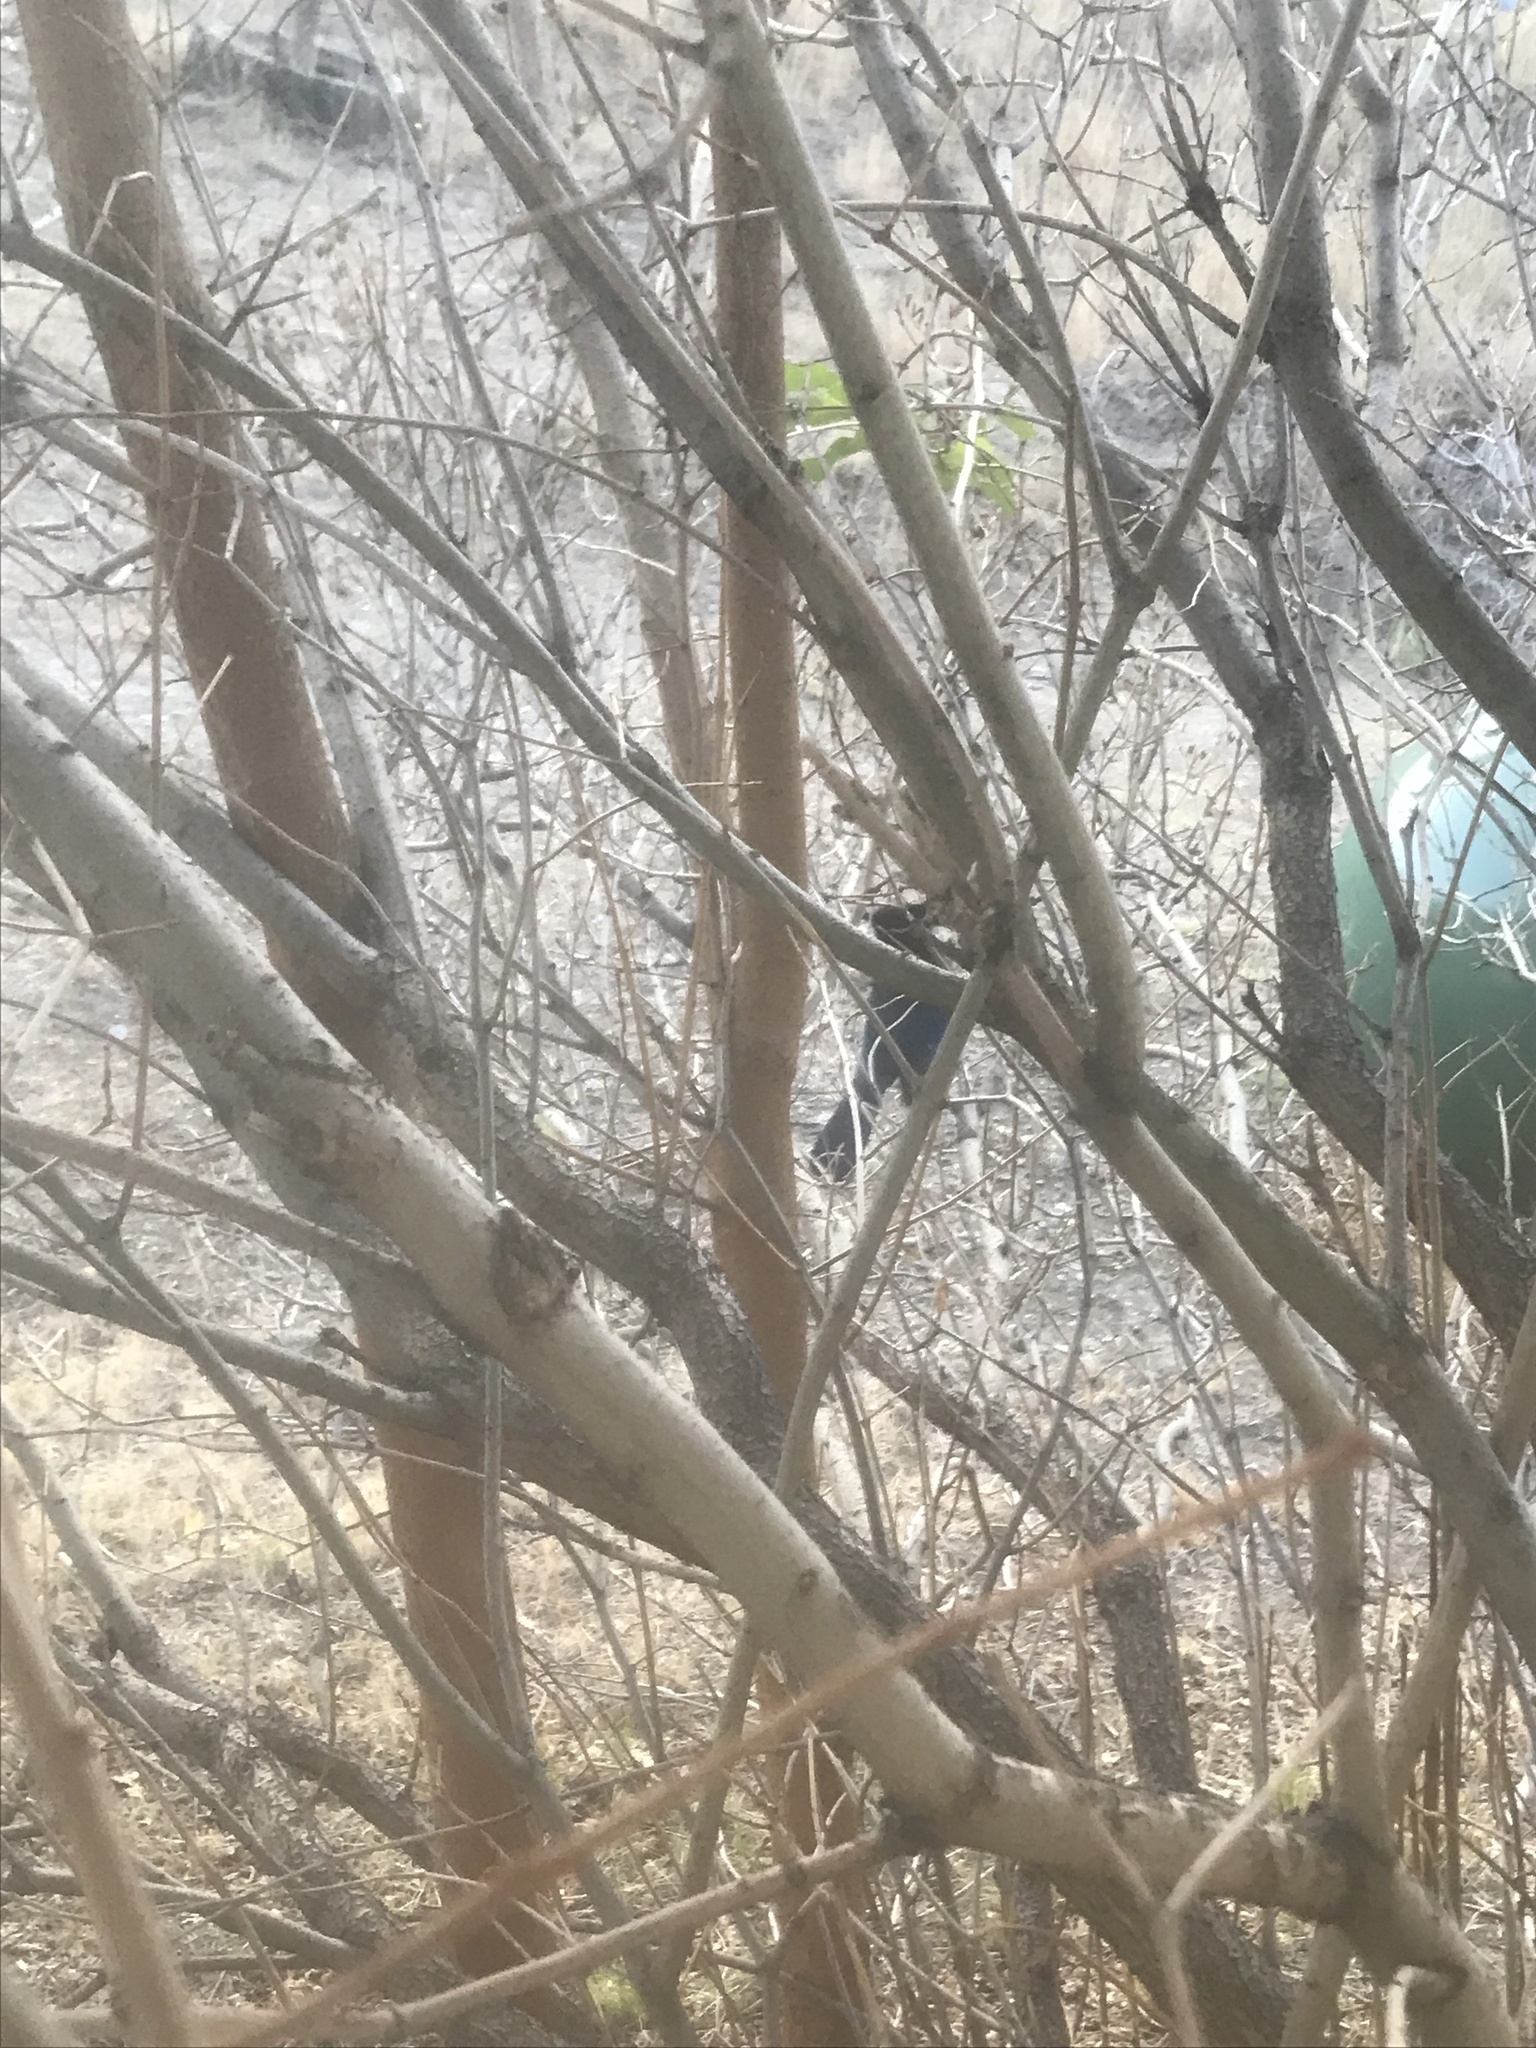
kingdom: Animalia
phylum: Chordata
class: Aves
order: Passeriformes
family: Corvidae
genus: Cyanocitta
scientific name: Cyanocitta stelleri
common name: Steller's jay
